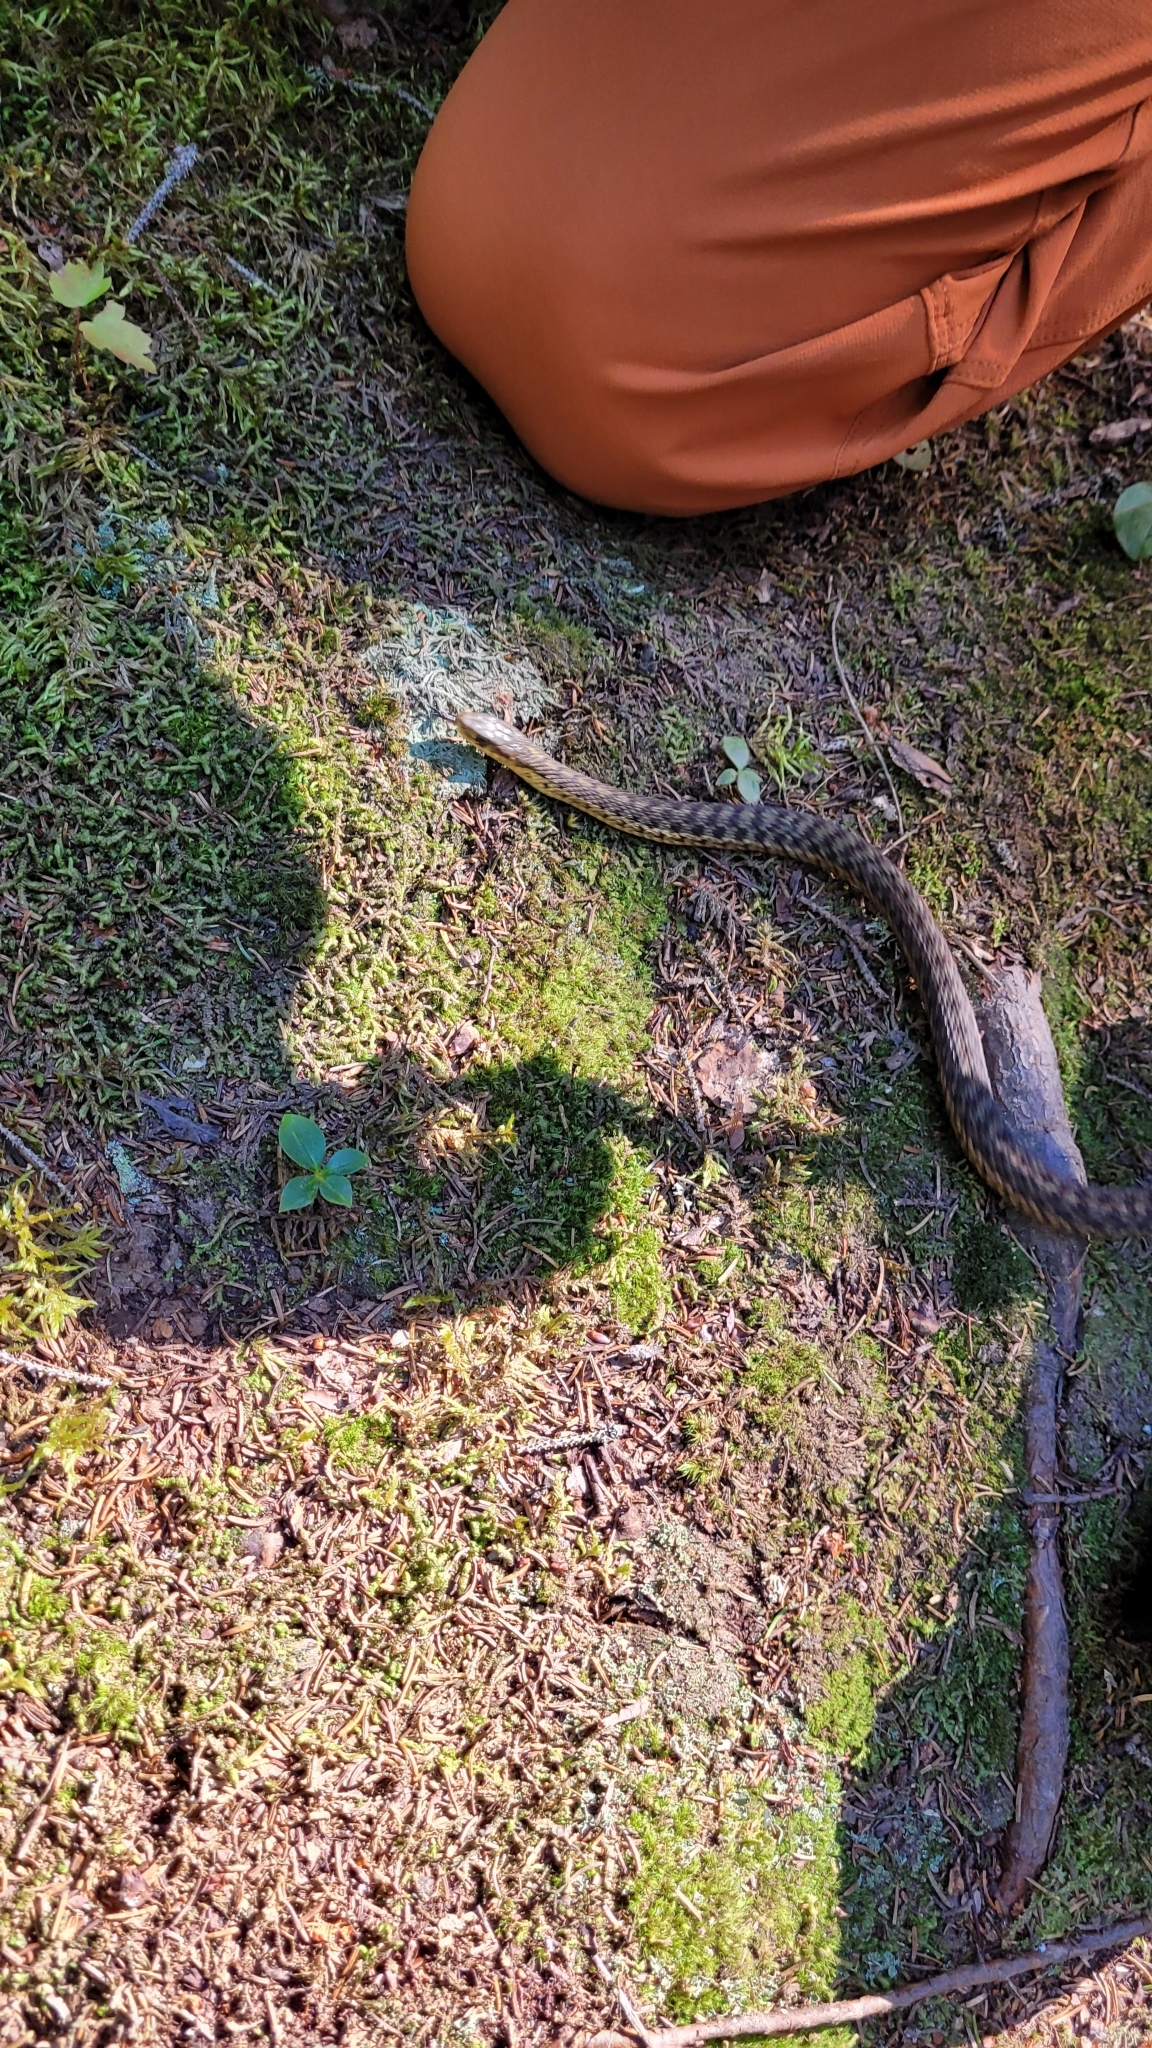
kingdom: Animalia
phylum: Chordata
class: Squamata
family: Colubridae
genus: Thamnophis
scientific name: Thamnophis sirtalis
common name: Common garter snake
